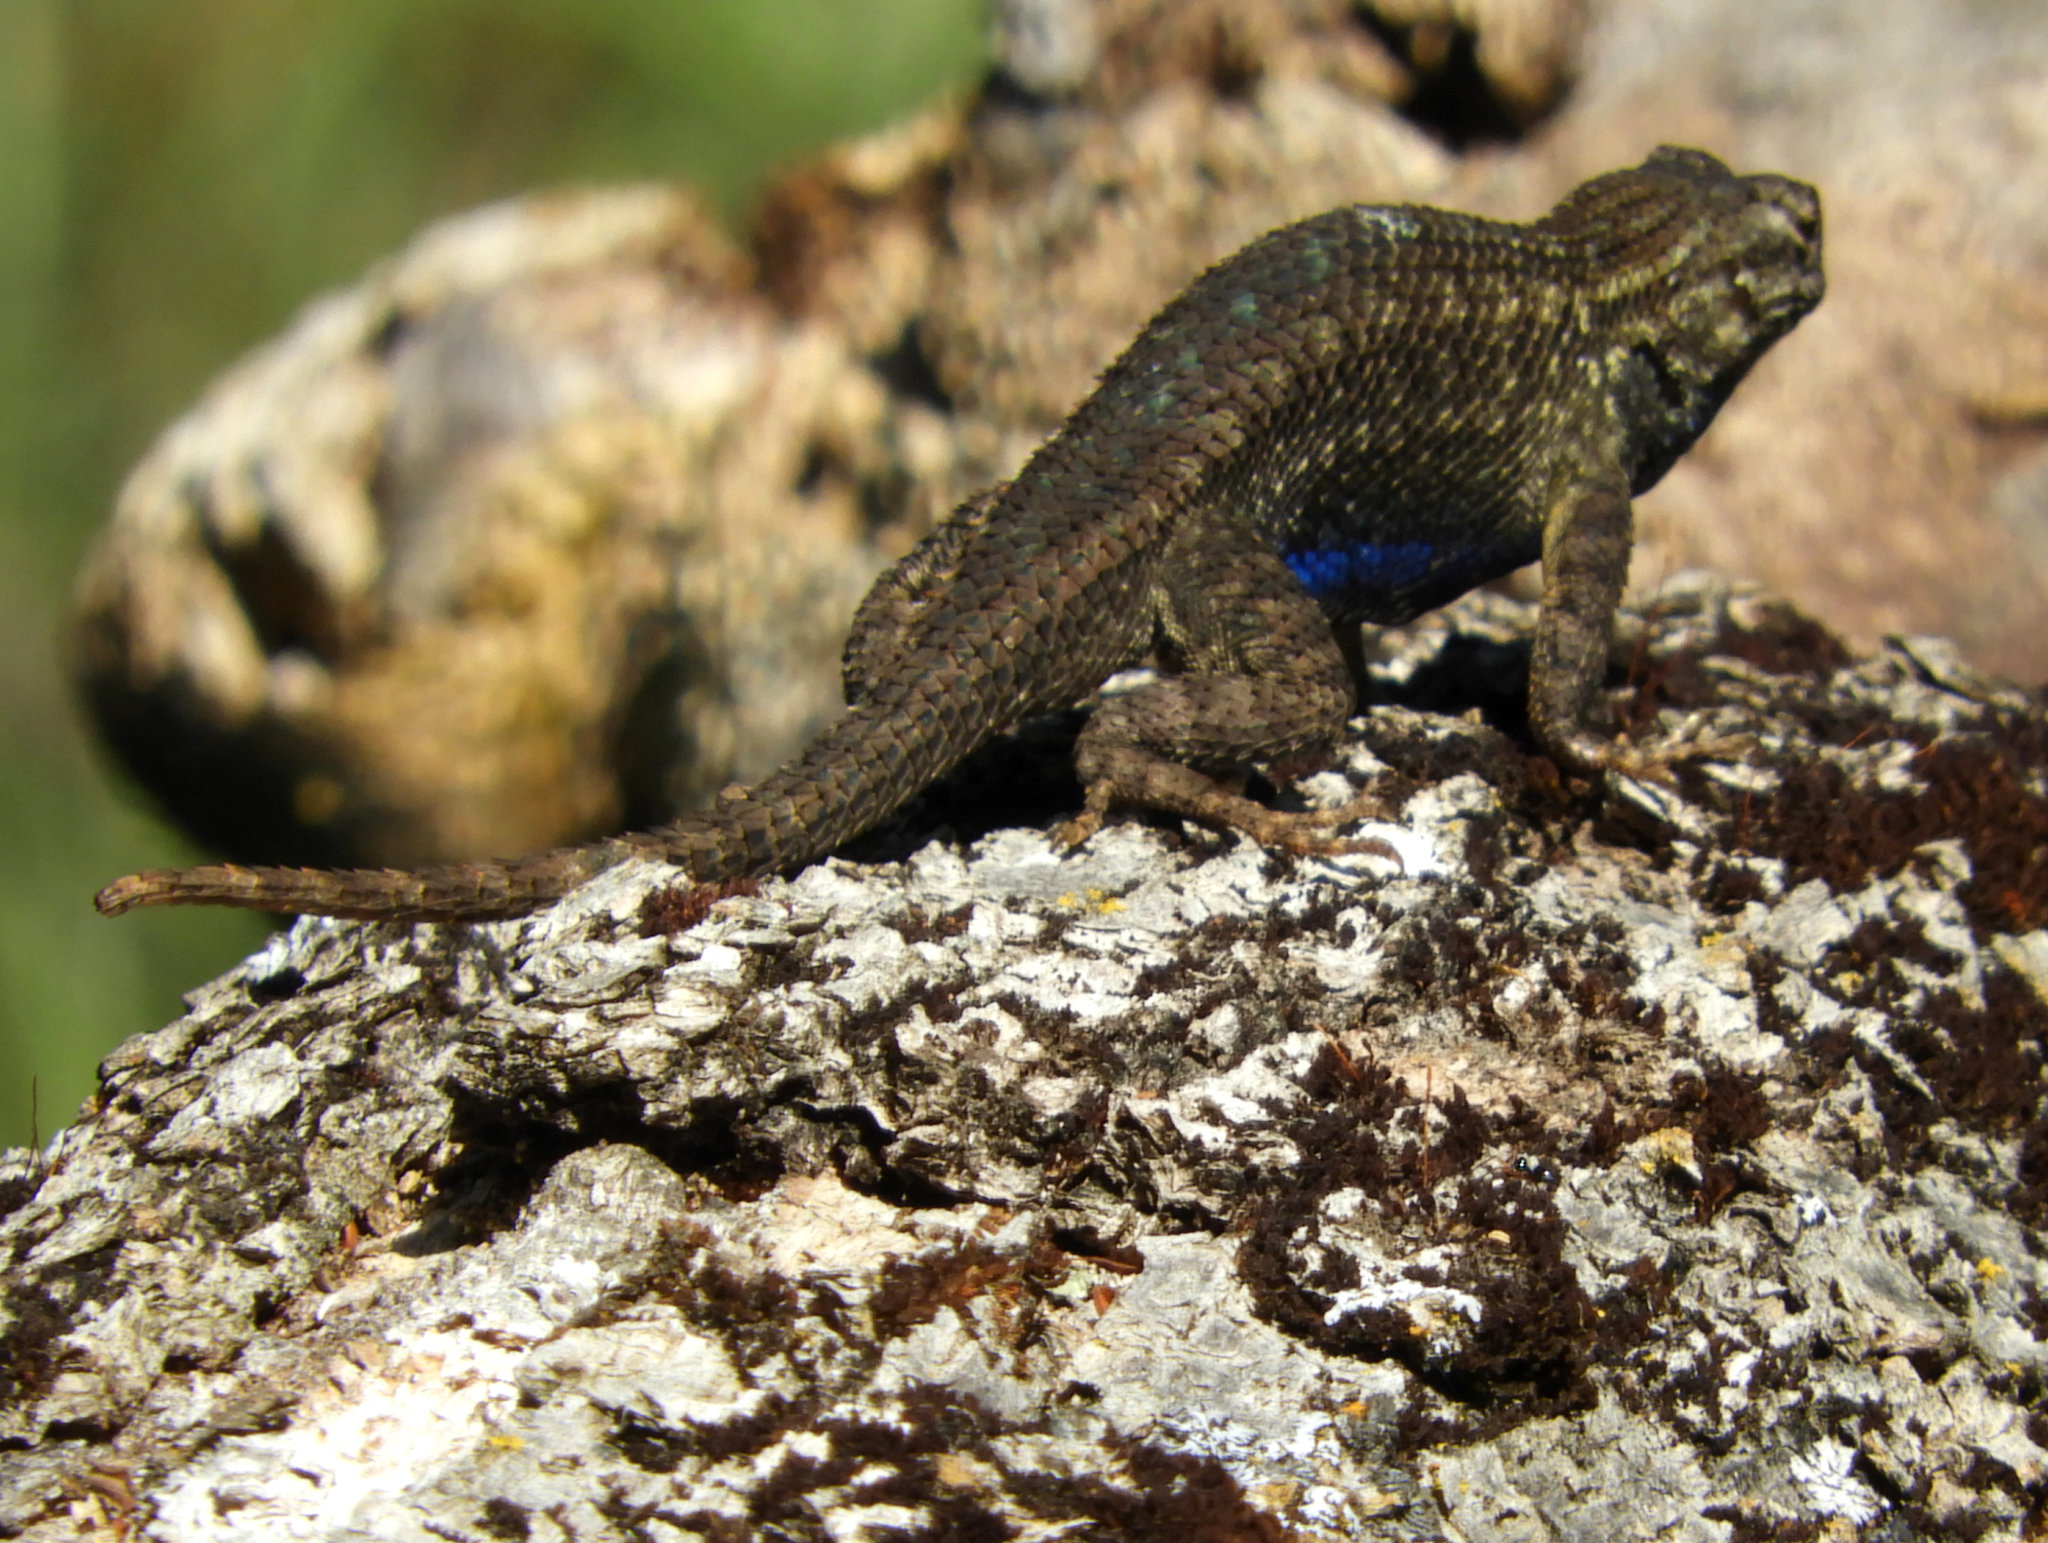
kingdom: Animalia
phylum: Chordata
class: Squamata
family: Phrynosomatidae
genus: Sceloporus
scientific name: Sceloporus occidentalis
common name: Western fence lizard
